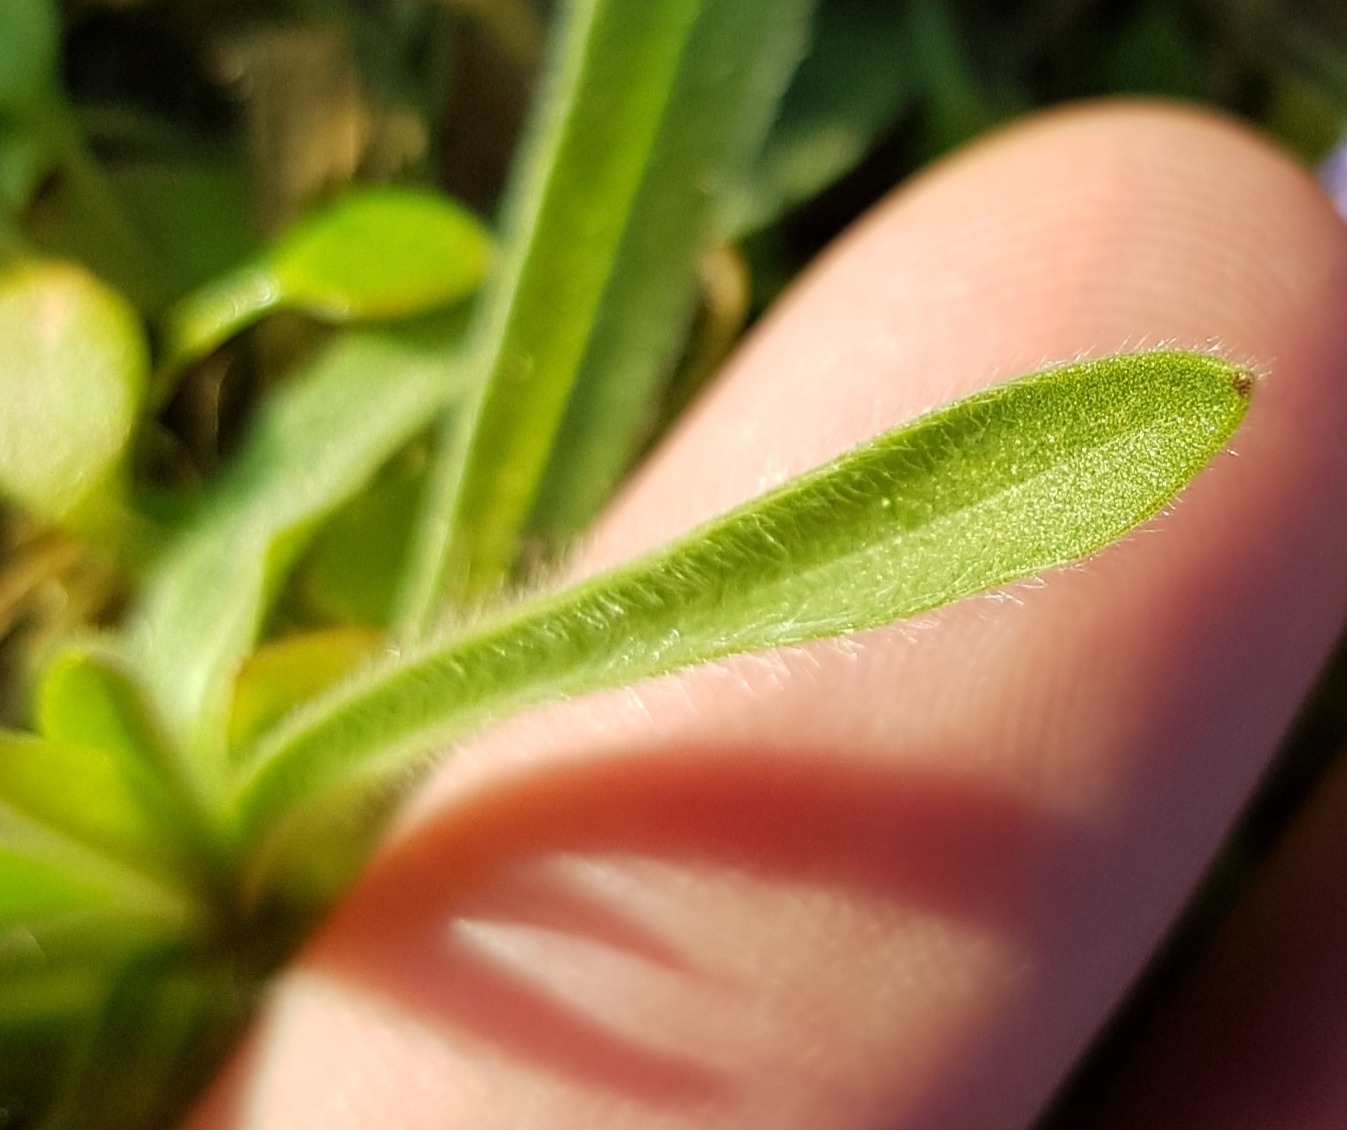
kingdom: Plantae
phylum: Tracheophyta
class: Magnoliopsida
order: Caryophyllales
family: Caryophyllaceae
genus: Agrostemma
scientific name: Agrostemma githago
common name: Common corncockle
